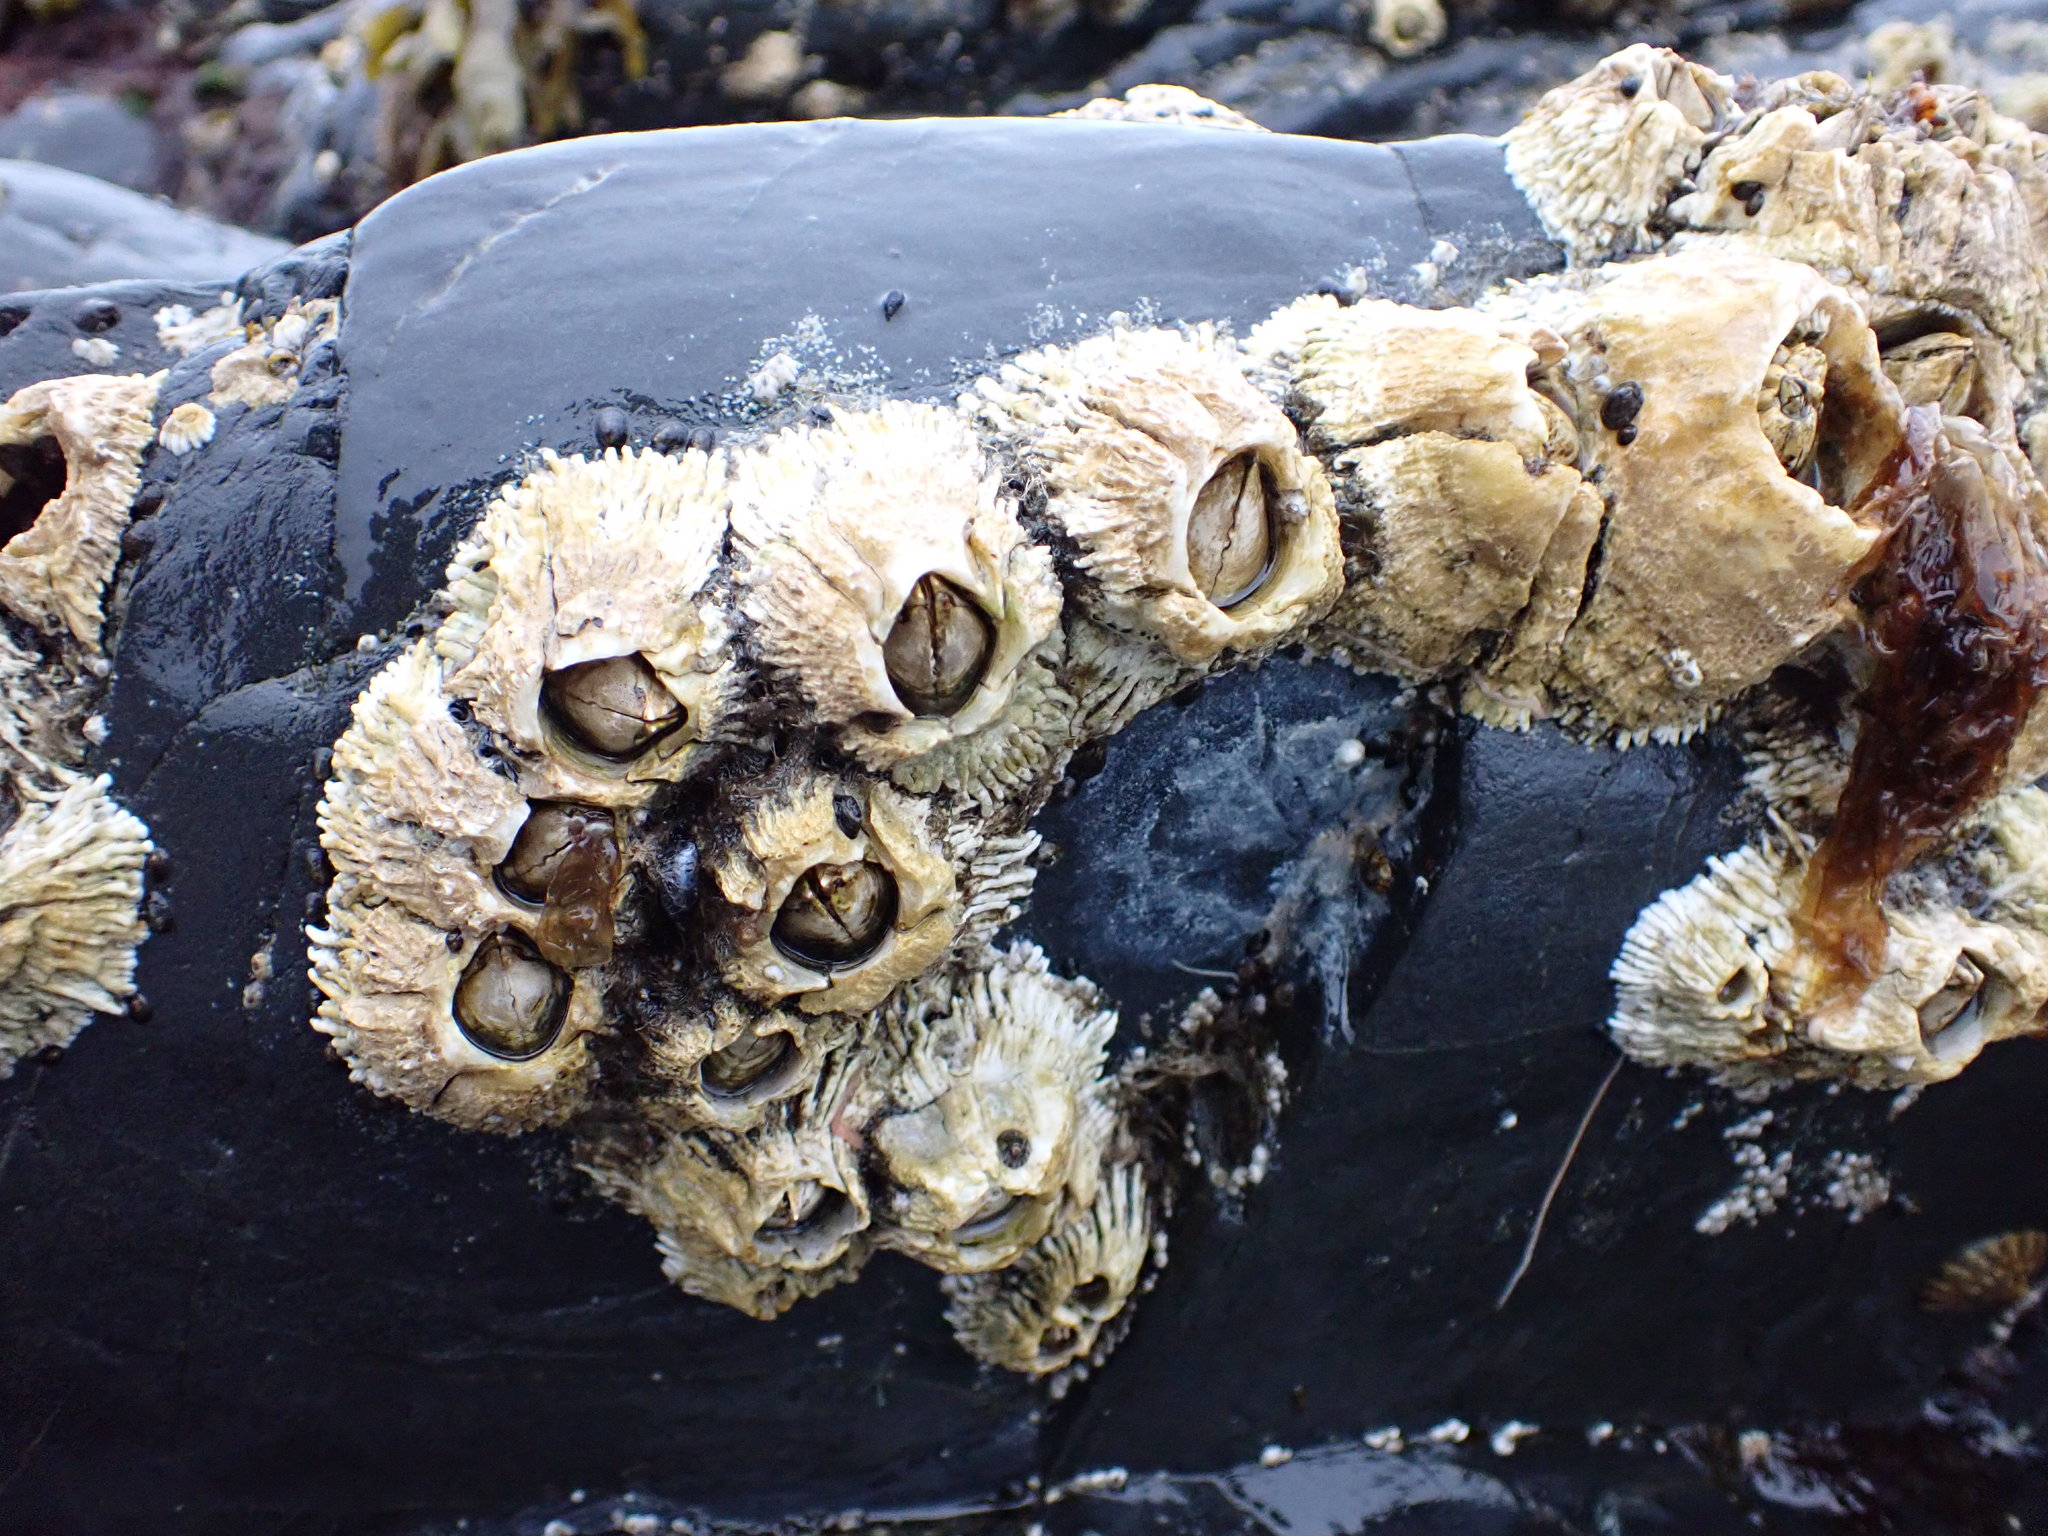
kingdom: Animalia
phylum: Arthropoda
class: Maxillopoda
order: Sessilia
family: Archaeobalanidae
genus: Semibalanus
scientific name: Semibalanus cariosus
